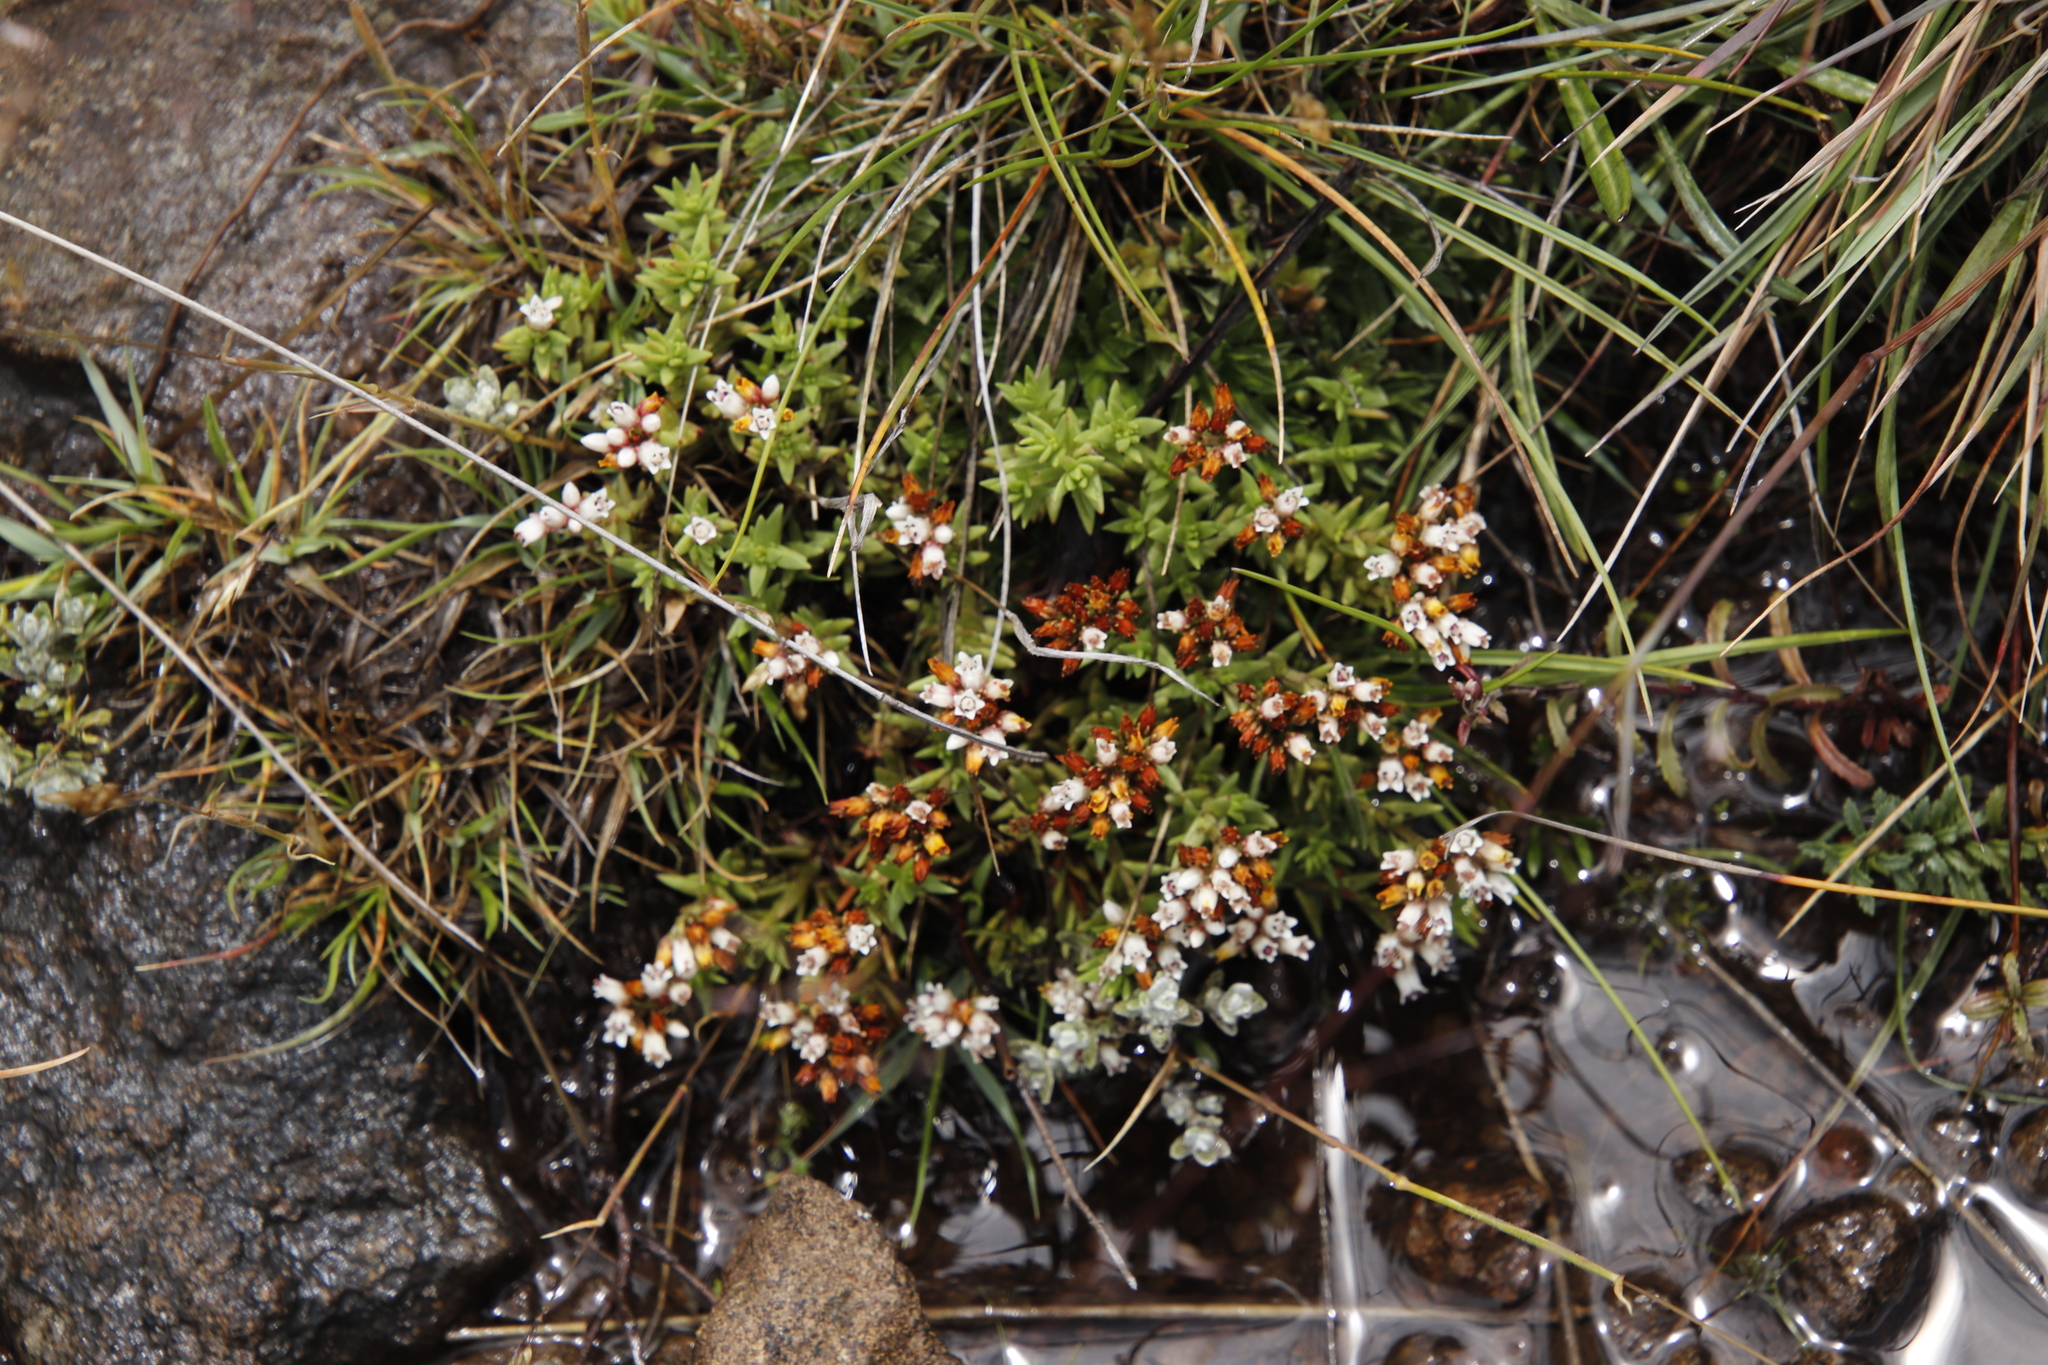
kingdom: Plantae
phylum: Tracheophyta
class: Magnoliopsida
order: Saxifragales
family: Crassulaceae
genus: Crassula
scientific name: Crassula dependens
